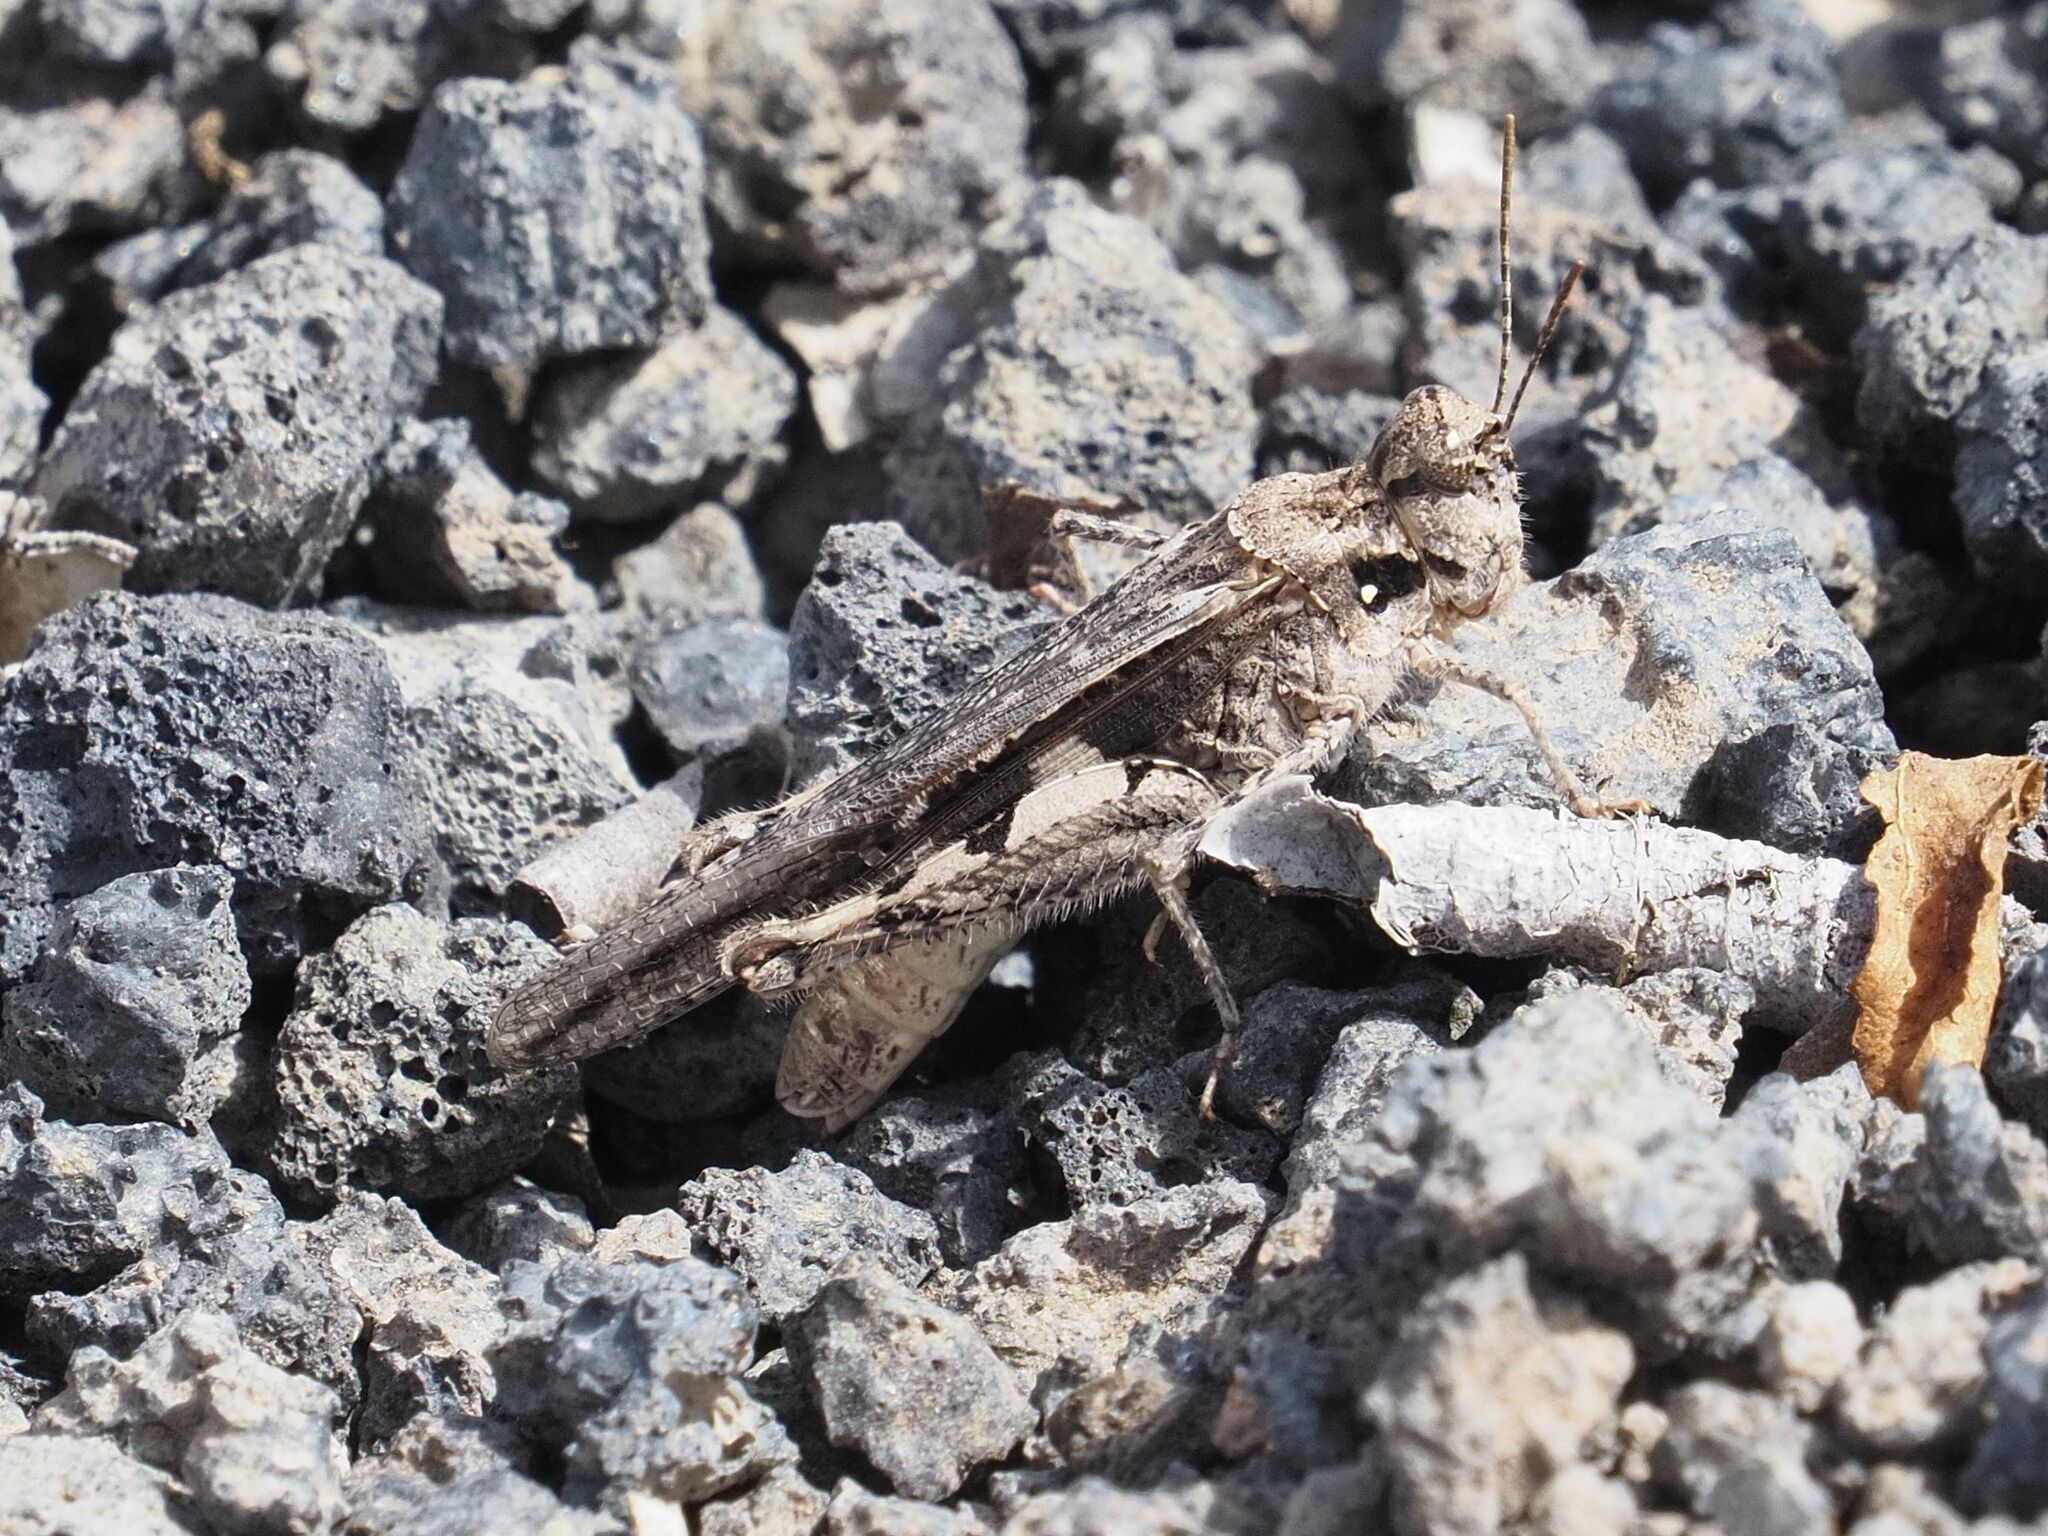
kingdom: Animalia
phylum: Arthropoda
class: Insecta
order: Orthoptera
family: Acrididae
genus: Acrotylus
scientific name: Acrotylus insubricus
